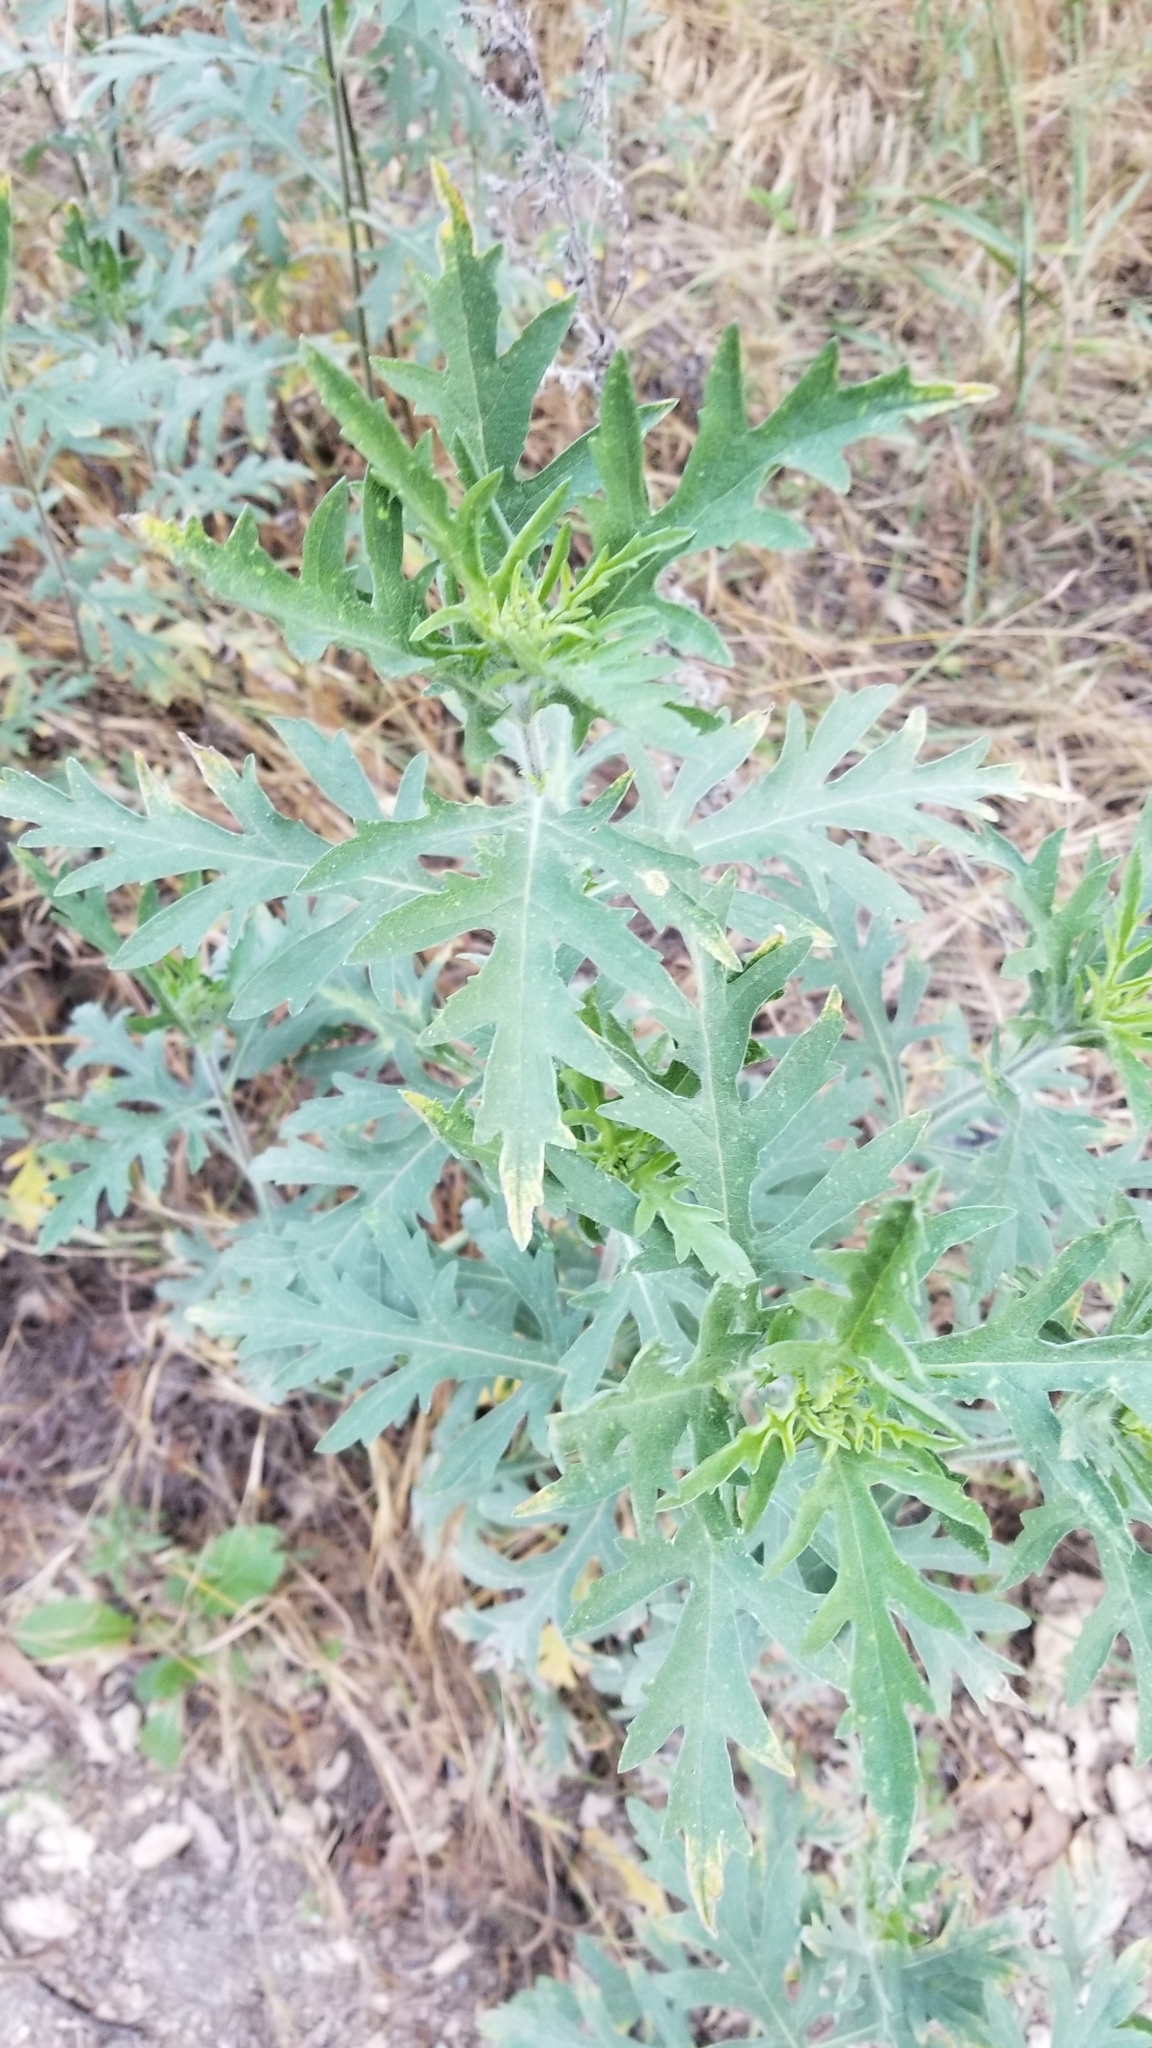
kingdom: Plantae
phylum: Tracheophyta
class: Magnoliopsida
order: Asterales
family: Asteraceae
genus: Ambrosia
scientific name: Ambrosia psilostachya
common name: Perennial ragweed
